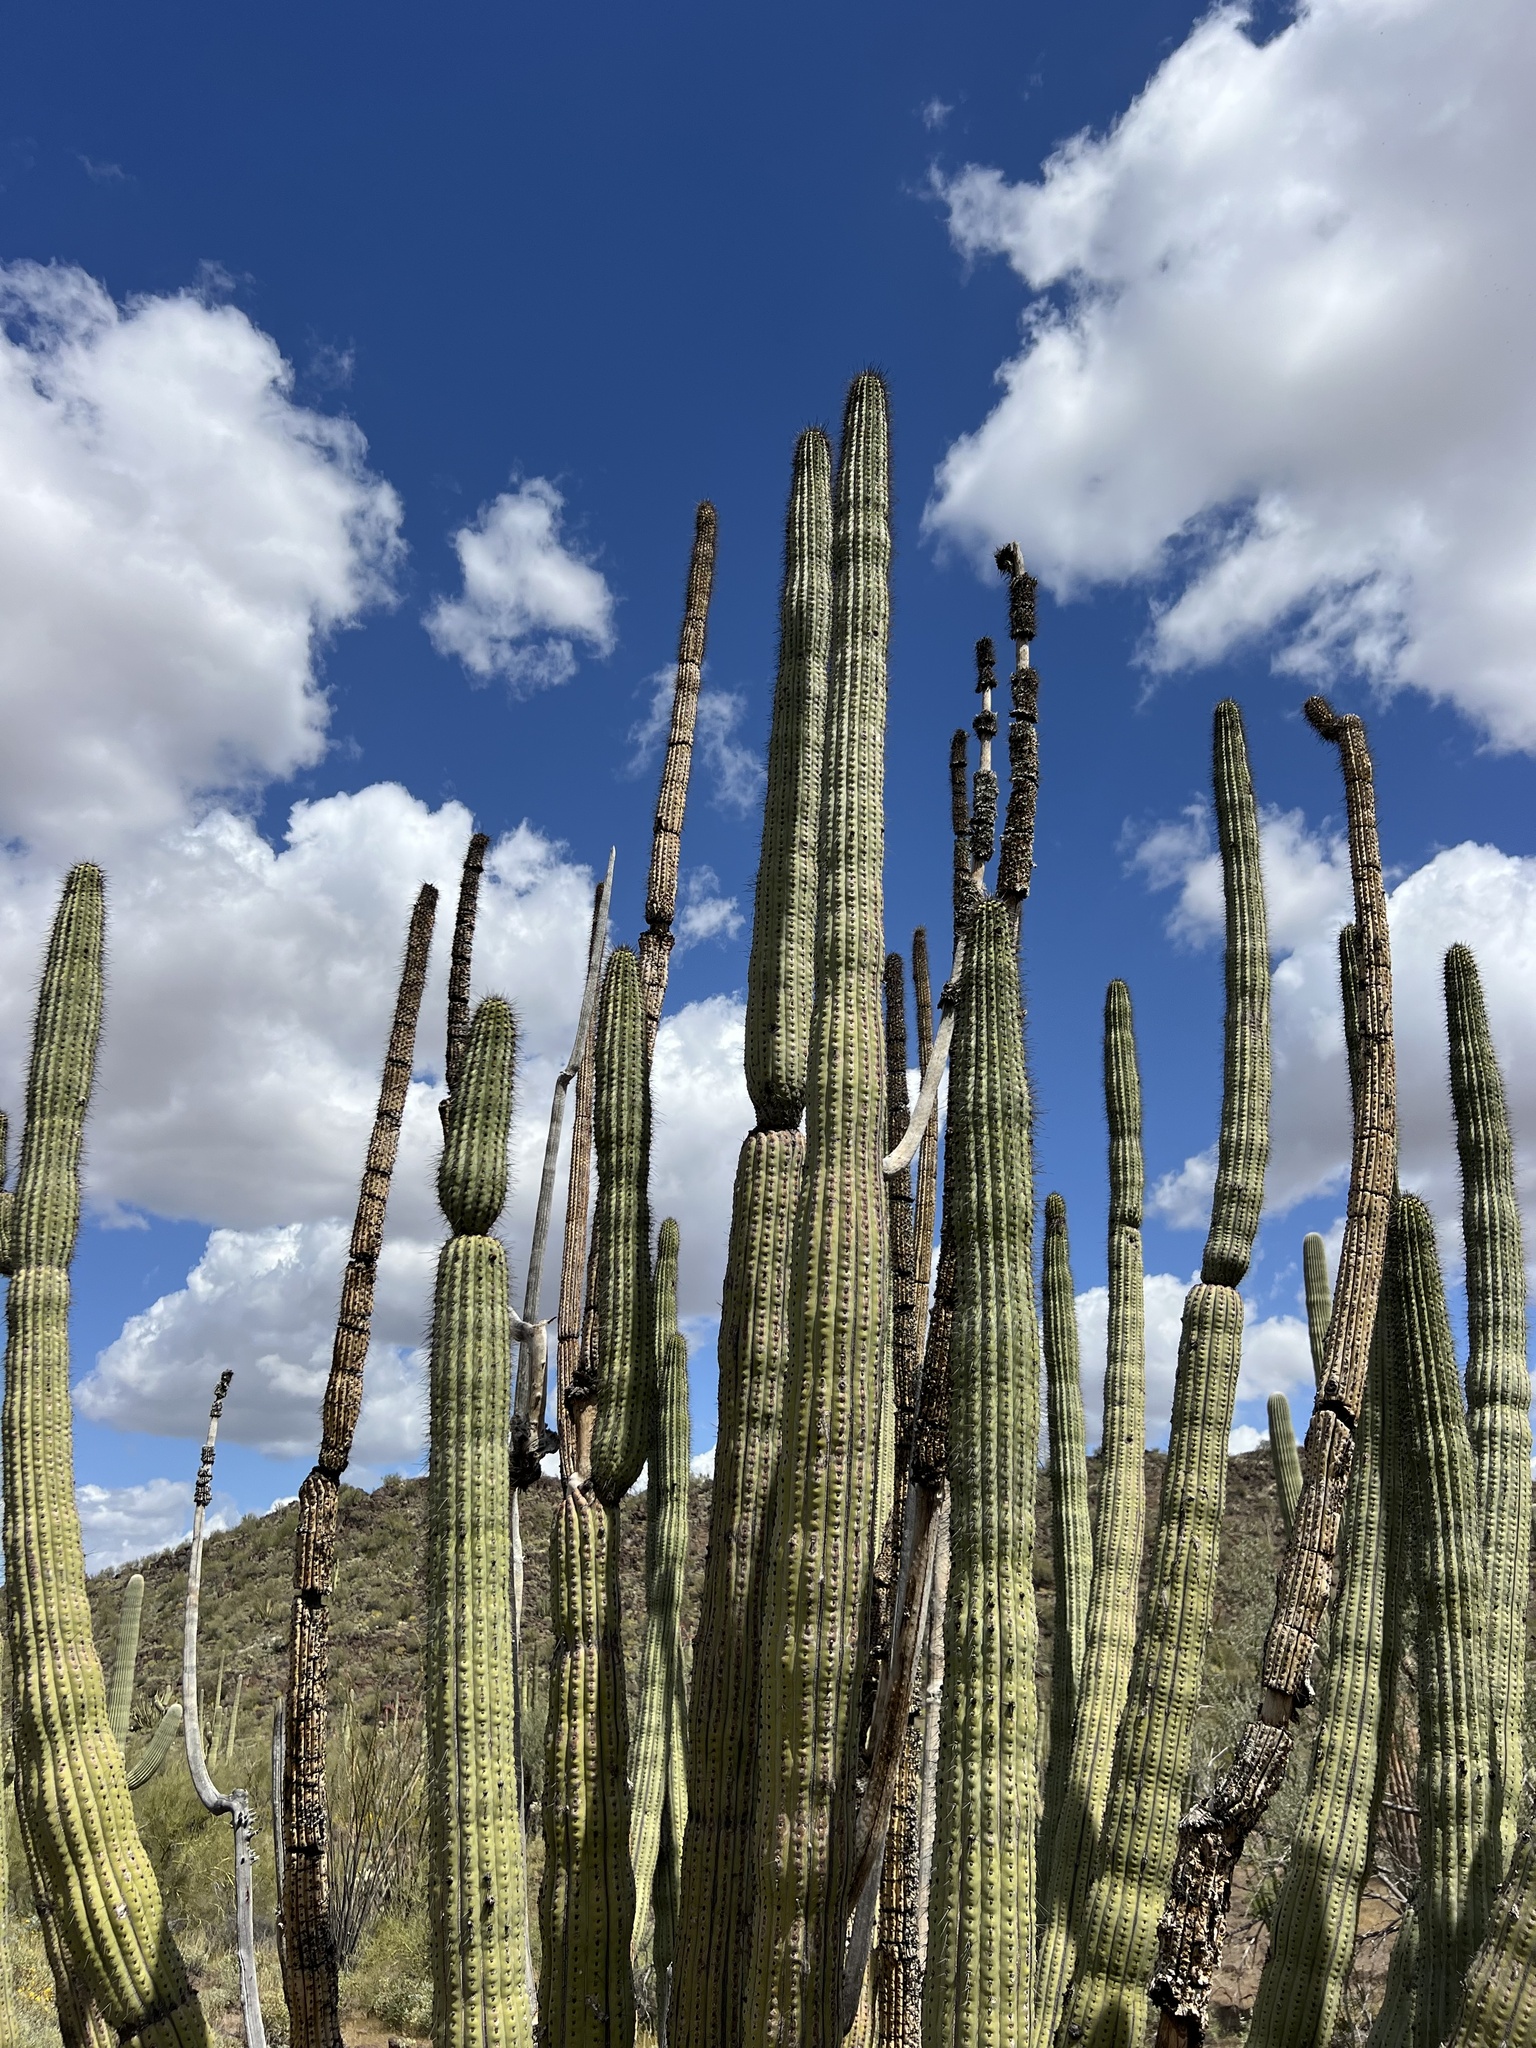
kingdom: Plantae
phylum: Tracheophyta
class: Magnoliopsida
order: Caryophyllales
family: Cactaceae
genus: Stenocereus
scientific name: Stenocereus thurberi
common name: Organ pipe cactus
